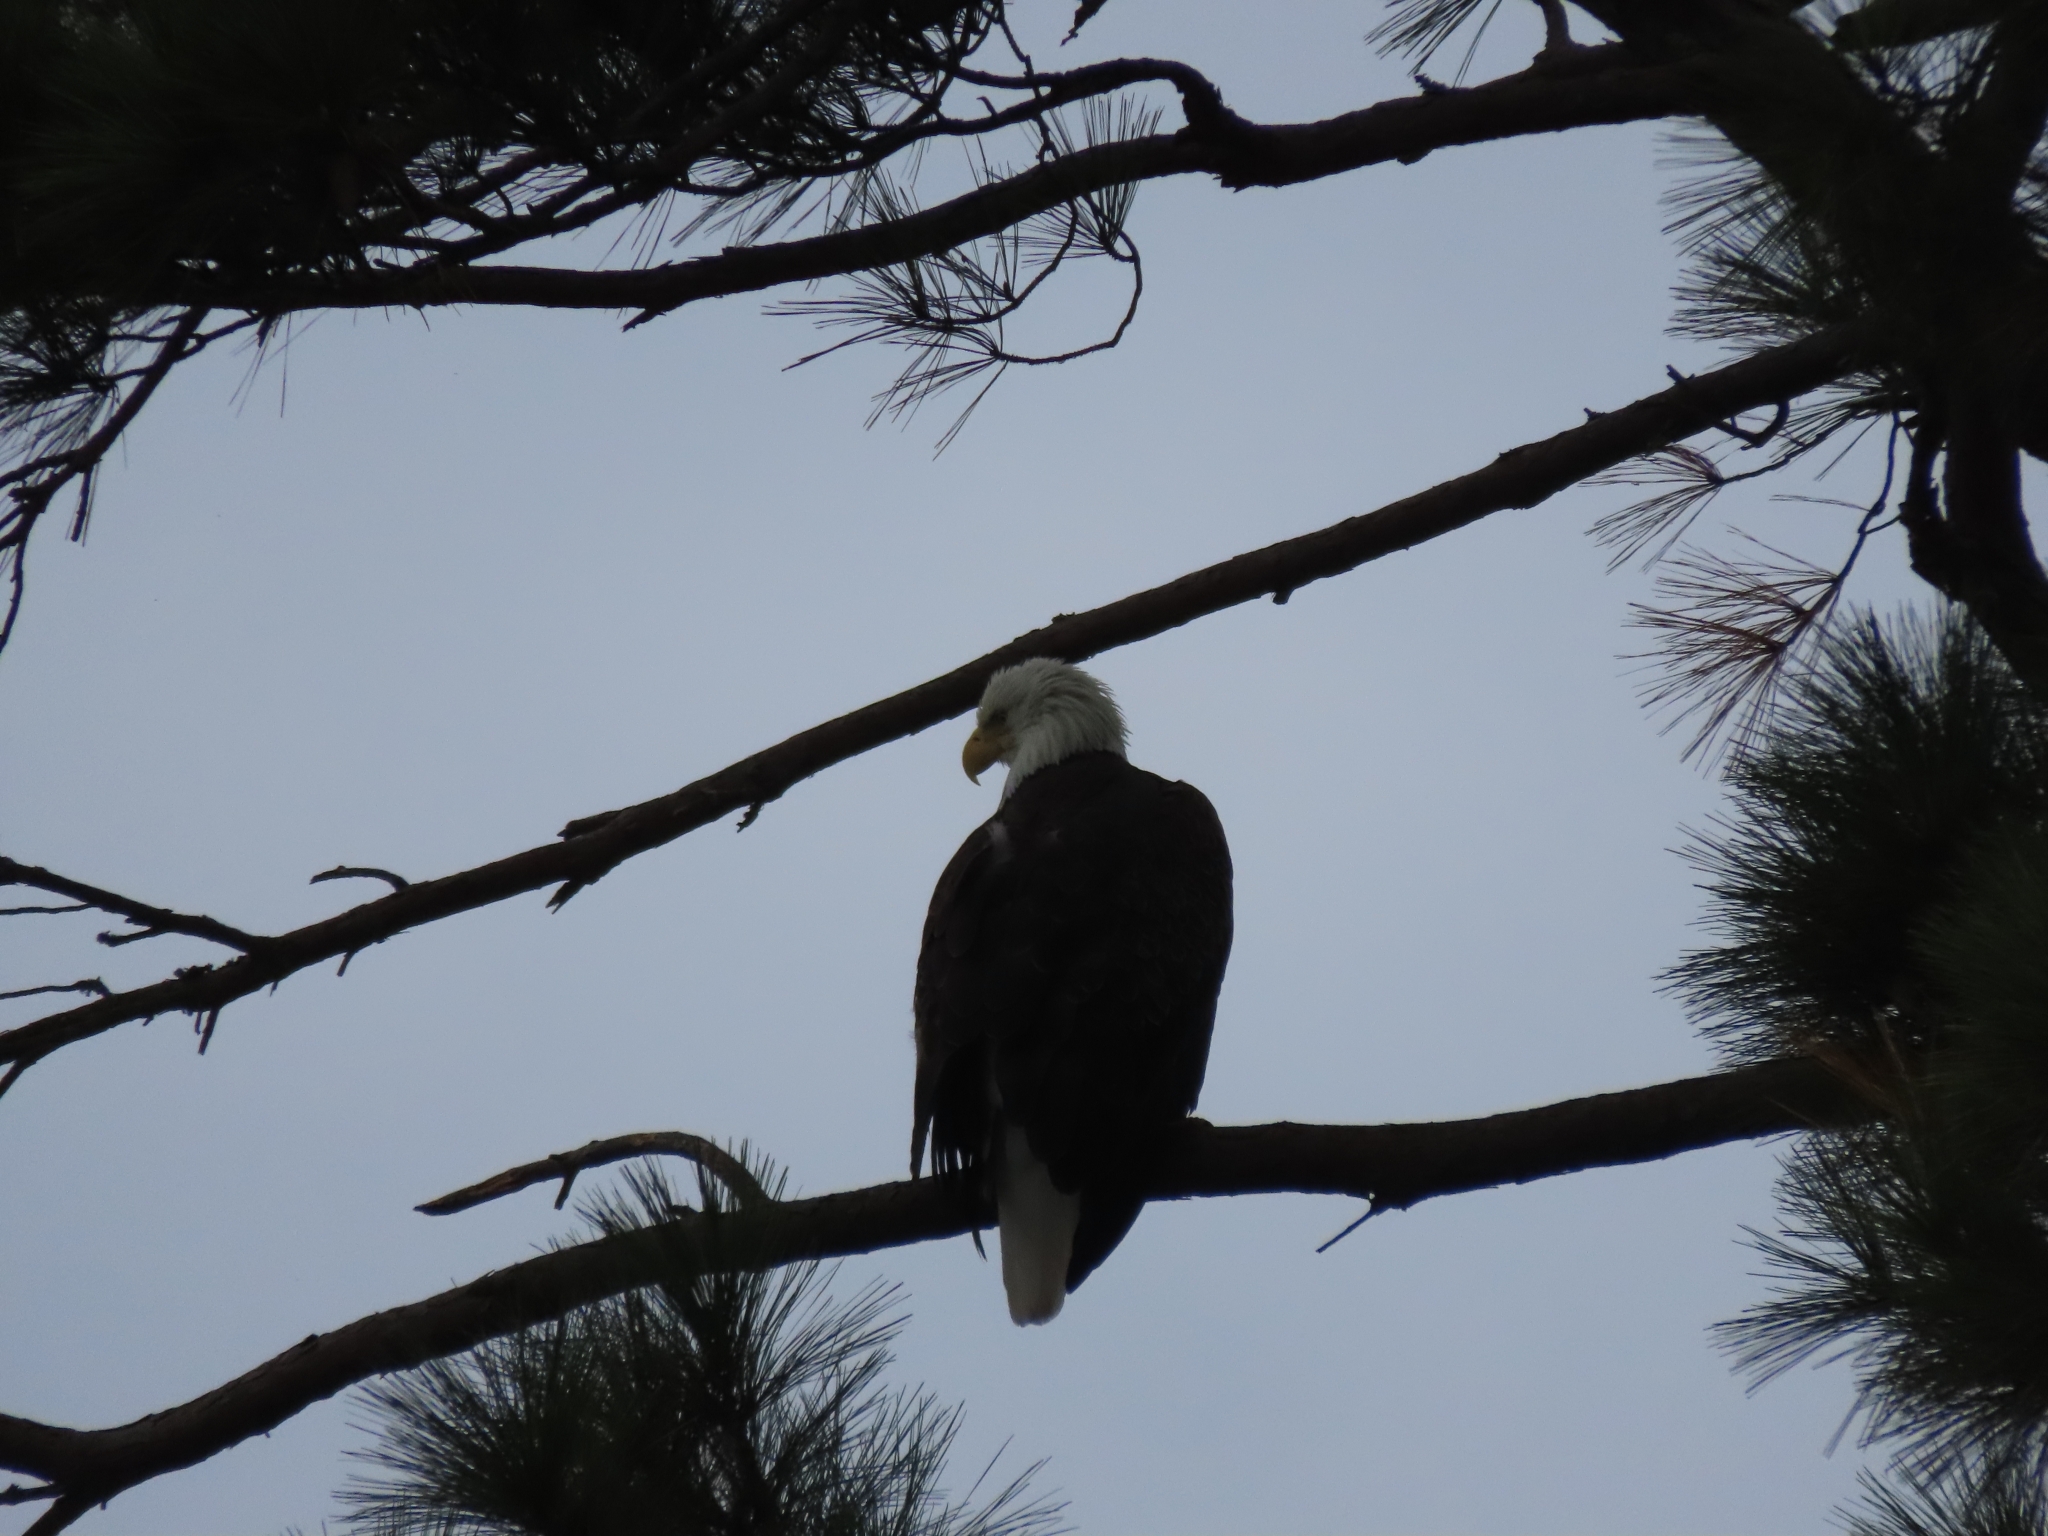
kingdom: Animalia
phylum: Chordata
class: Aves
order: Accipitriformes
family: Accipitridae
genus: Haliaeetus
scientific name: Haliaeetus leucocephalus
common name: Bald eagle
